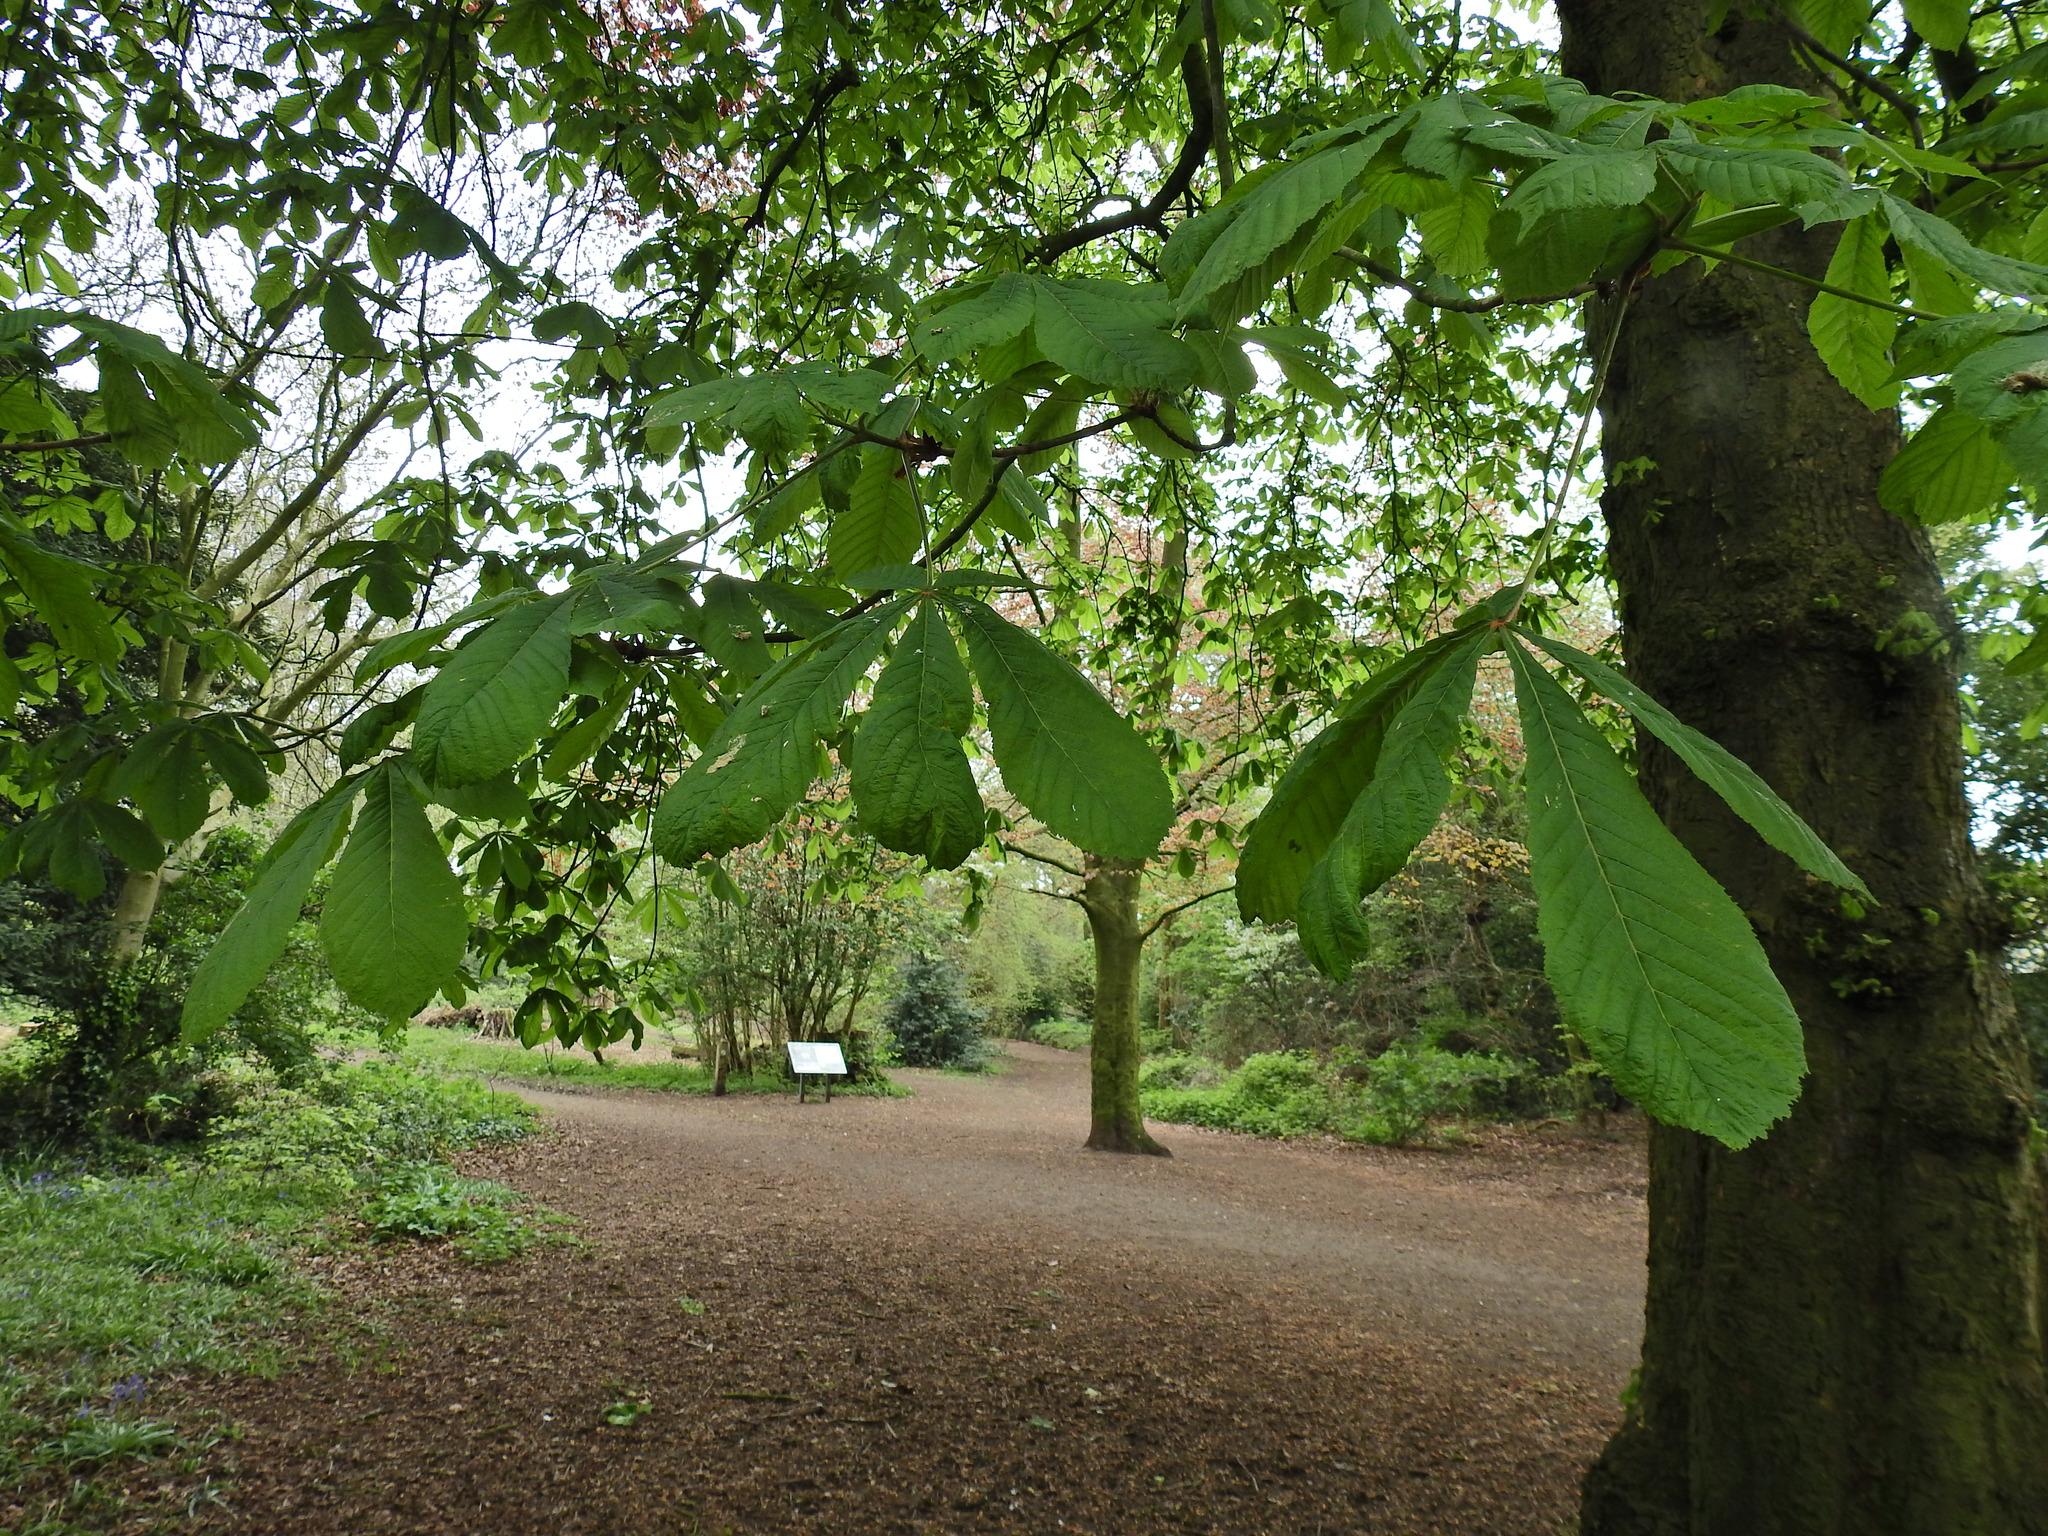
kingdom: Plantae
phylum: Tracheophyta
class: Magnoliopsida
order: Sapindales
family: Sapindaceae
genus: Aesculus
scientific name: Aesculus hippocastanum
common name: Horse-chestnut
